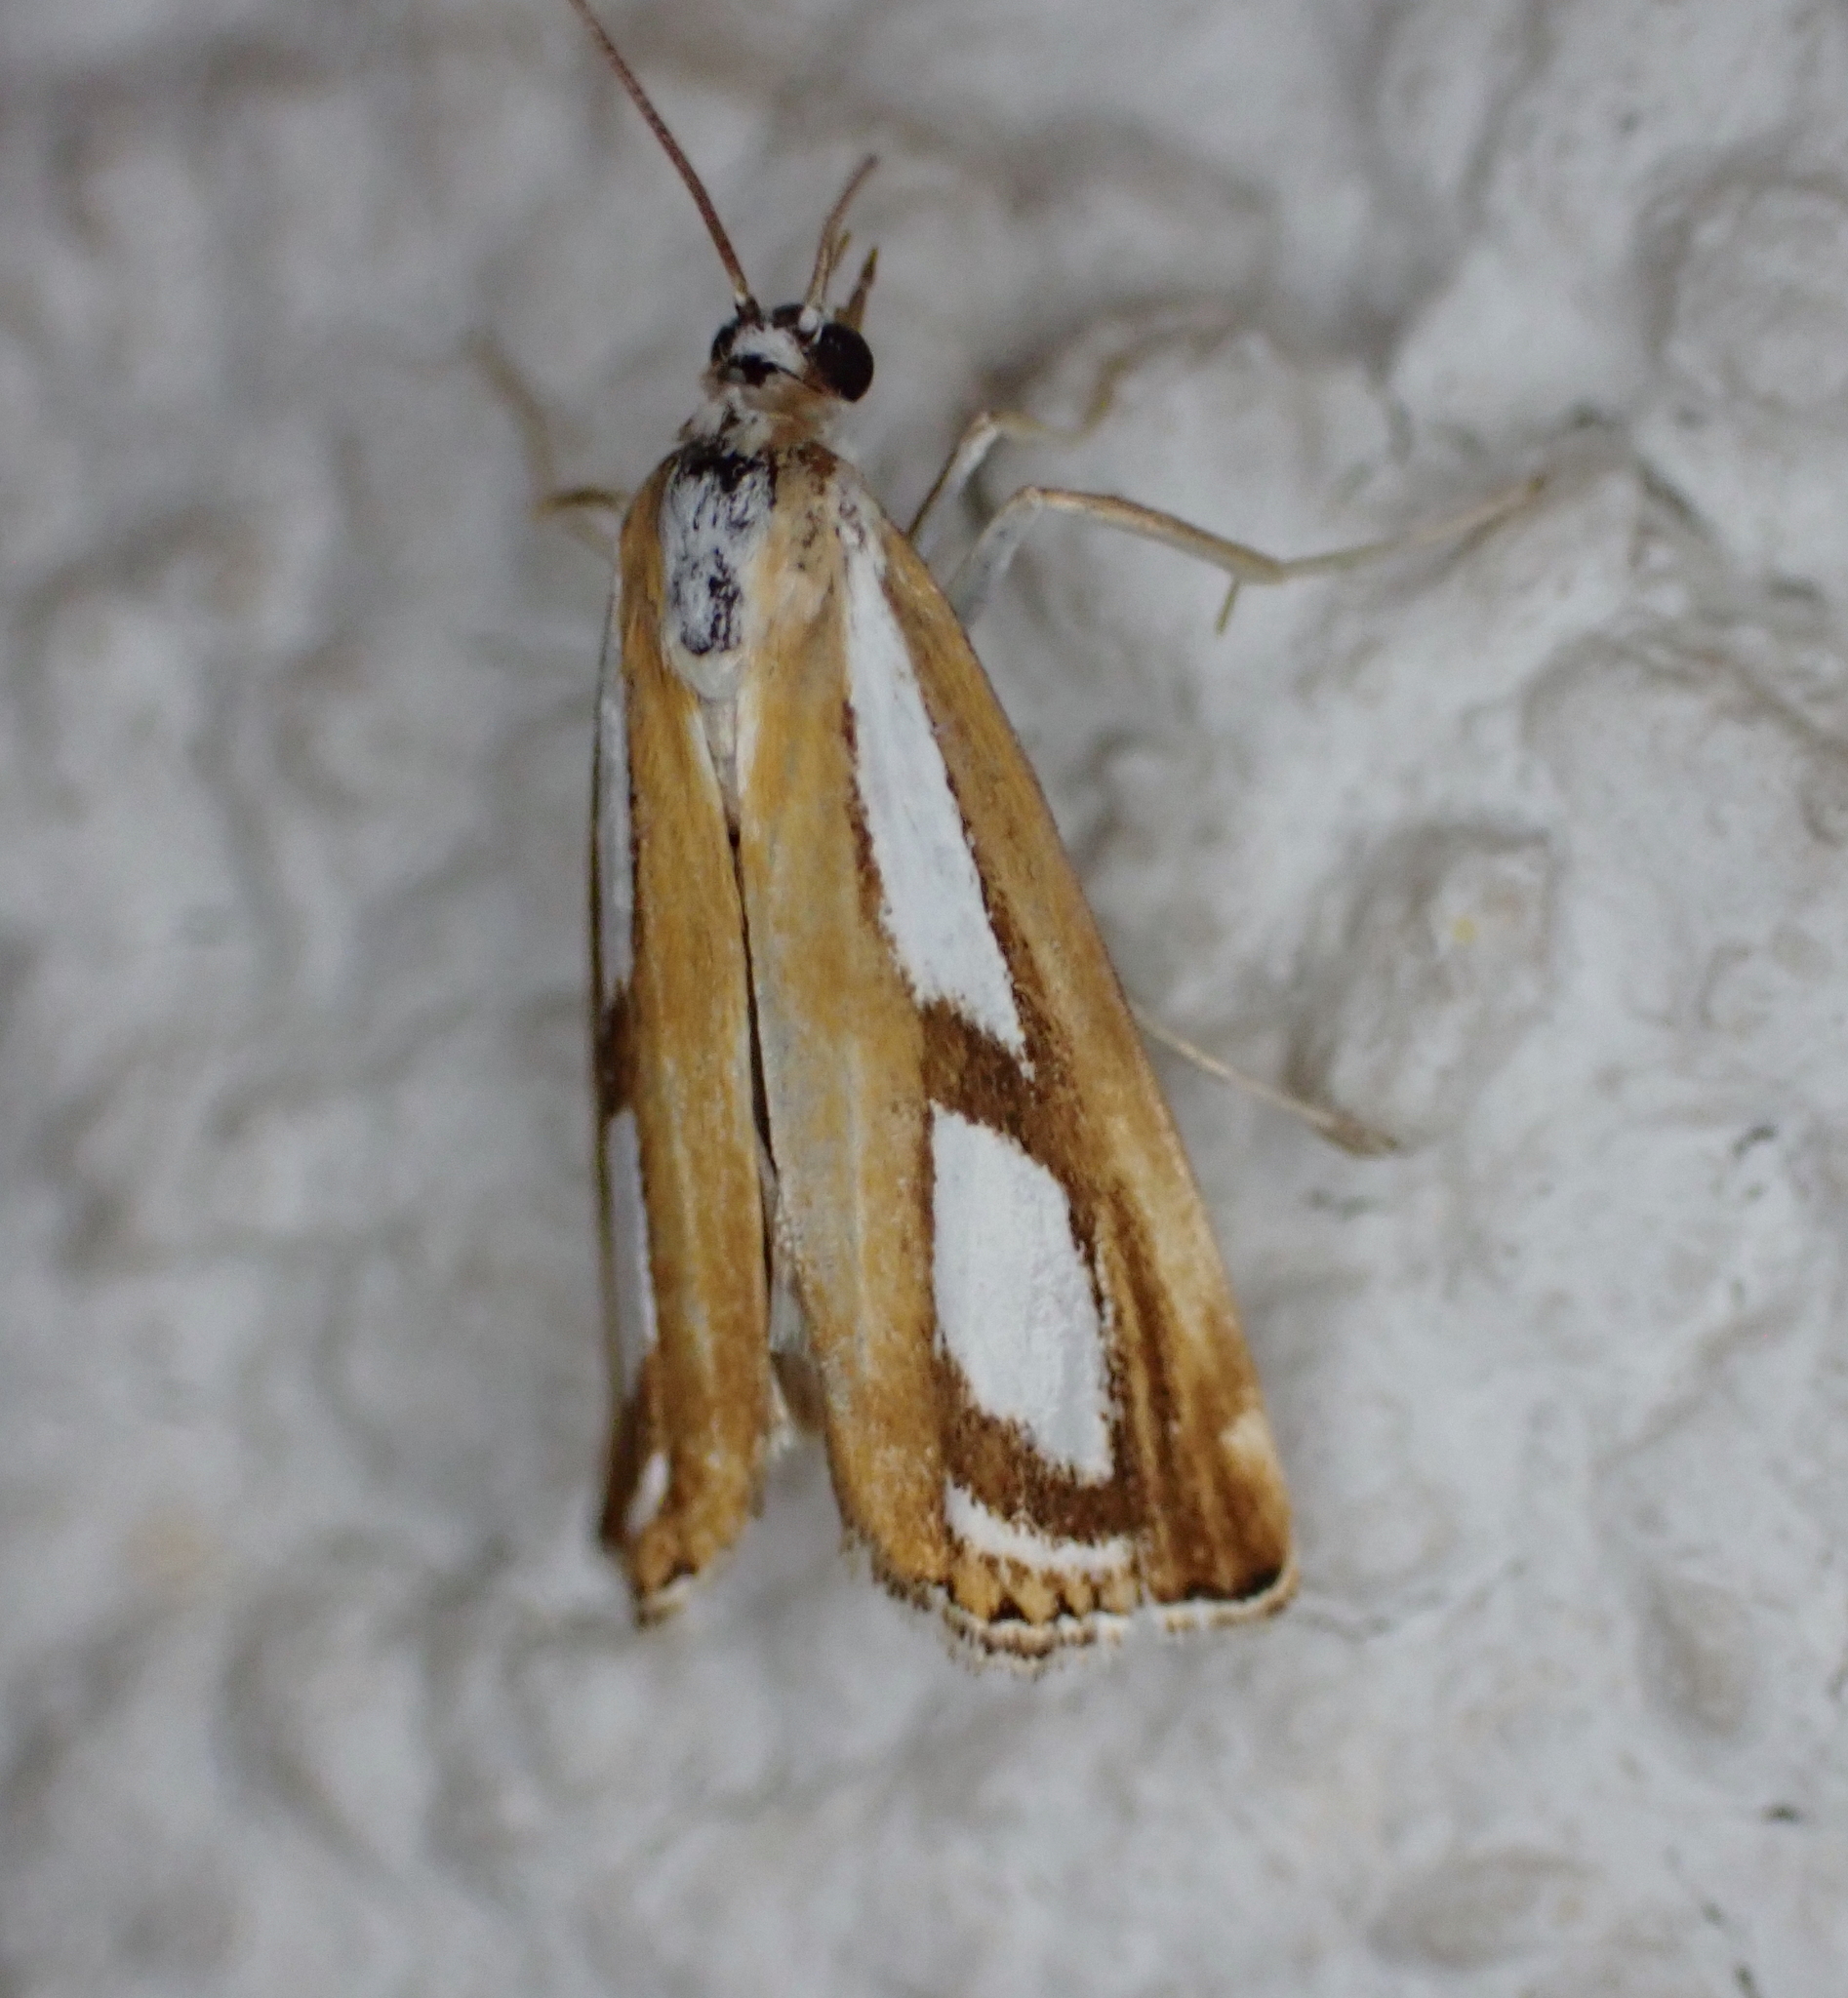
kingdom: Animalia
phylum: Arthropoda
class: Insecta
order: Lepidoptera
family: Crambidae
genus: Catoptria
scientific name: Catoptria
